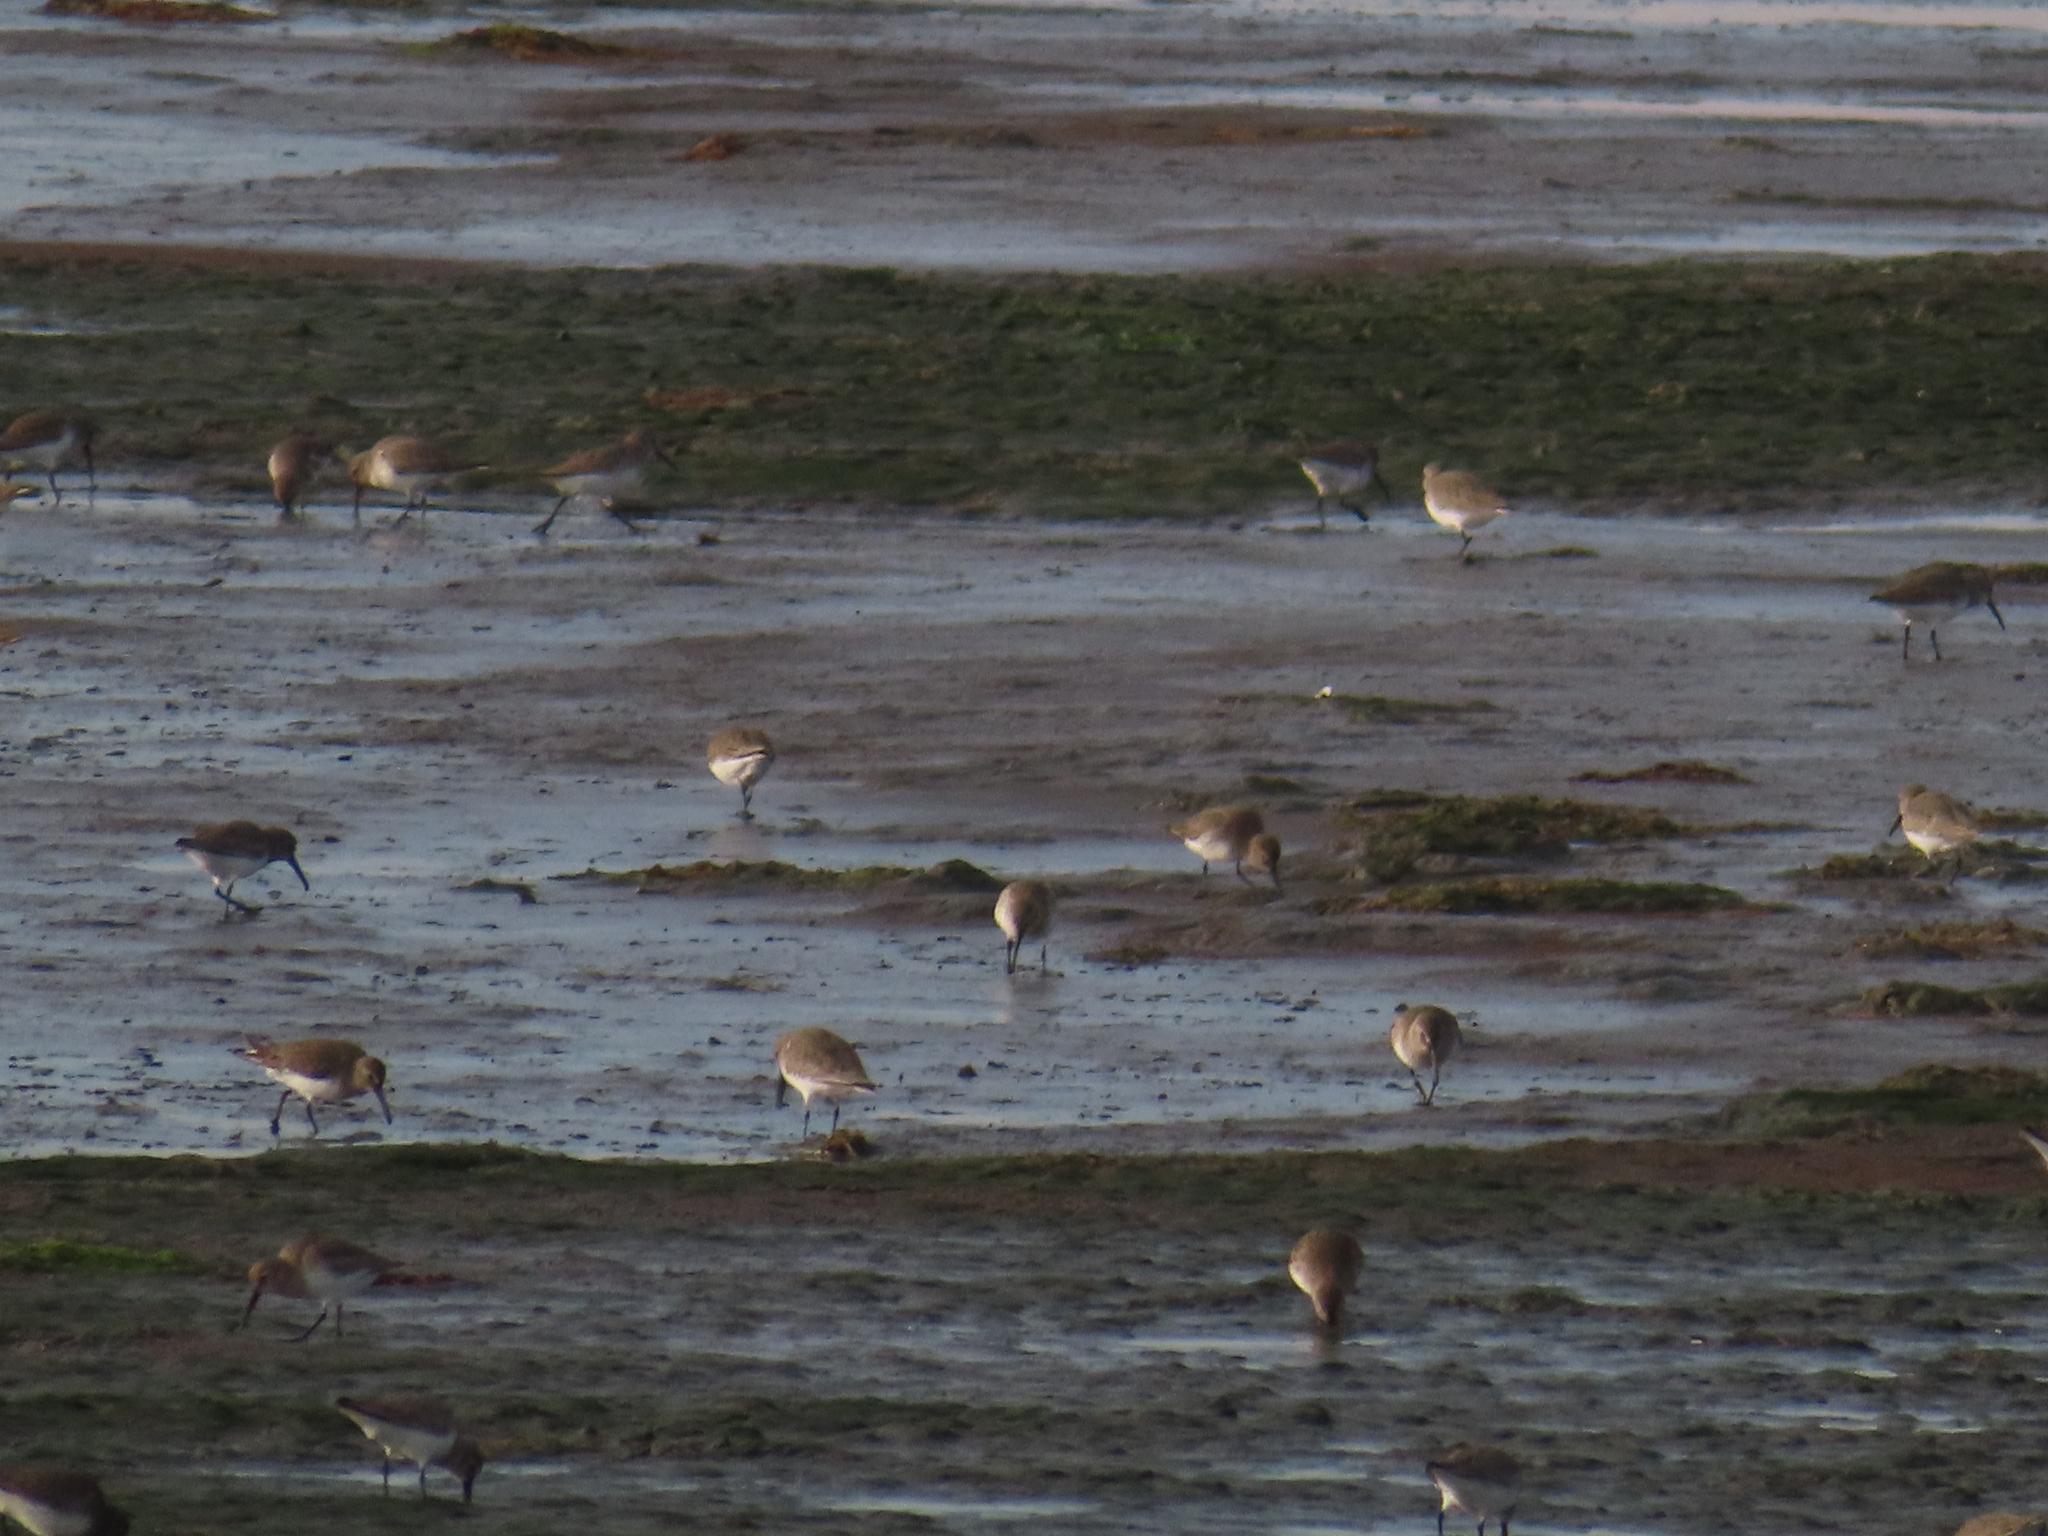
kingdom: Animalia
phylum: Chordata
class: Aves
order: Charadriiformes
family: Scolopacidae
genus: Calidris
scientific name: Calidris alpina
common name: Dunlin
